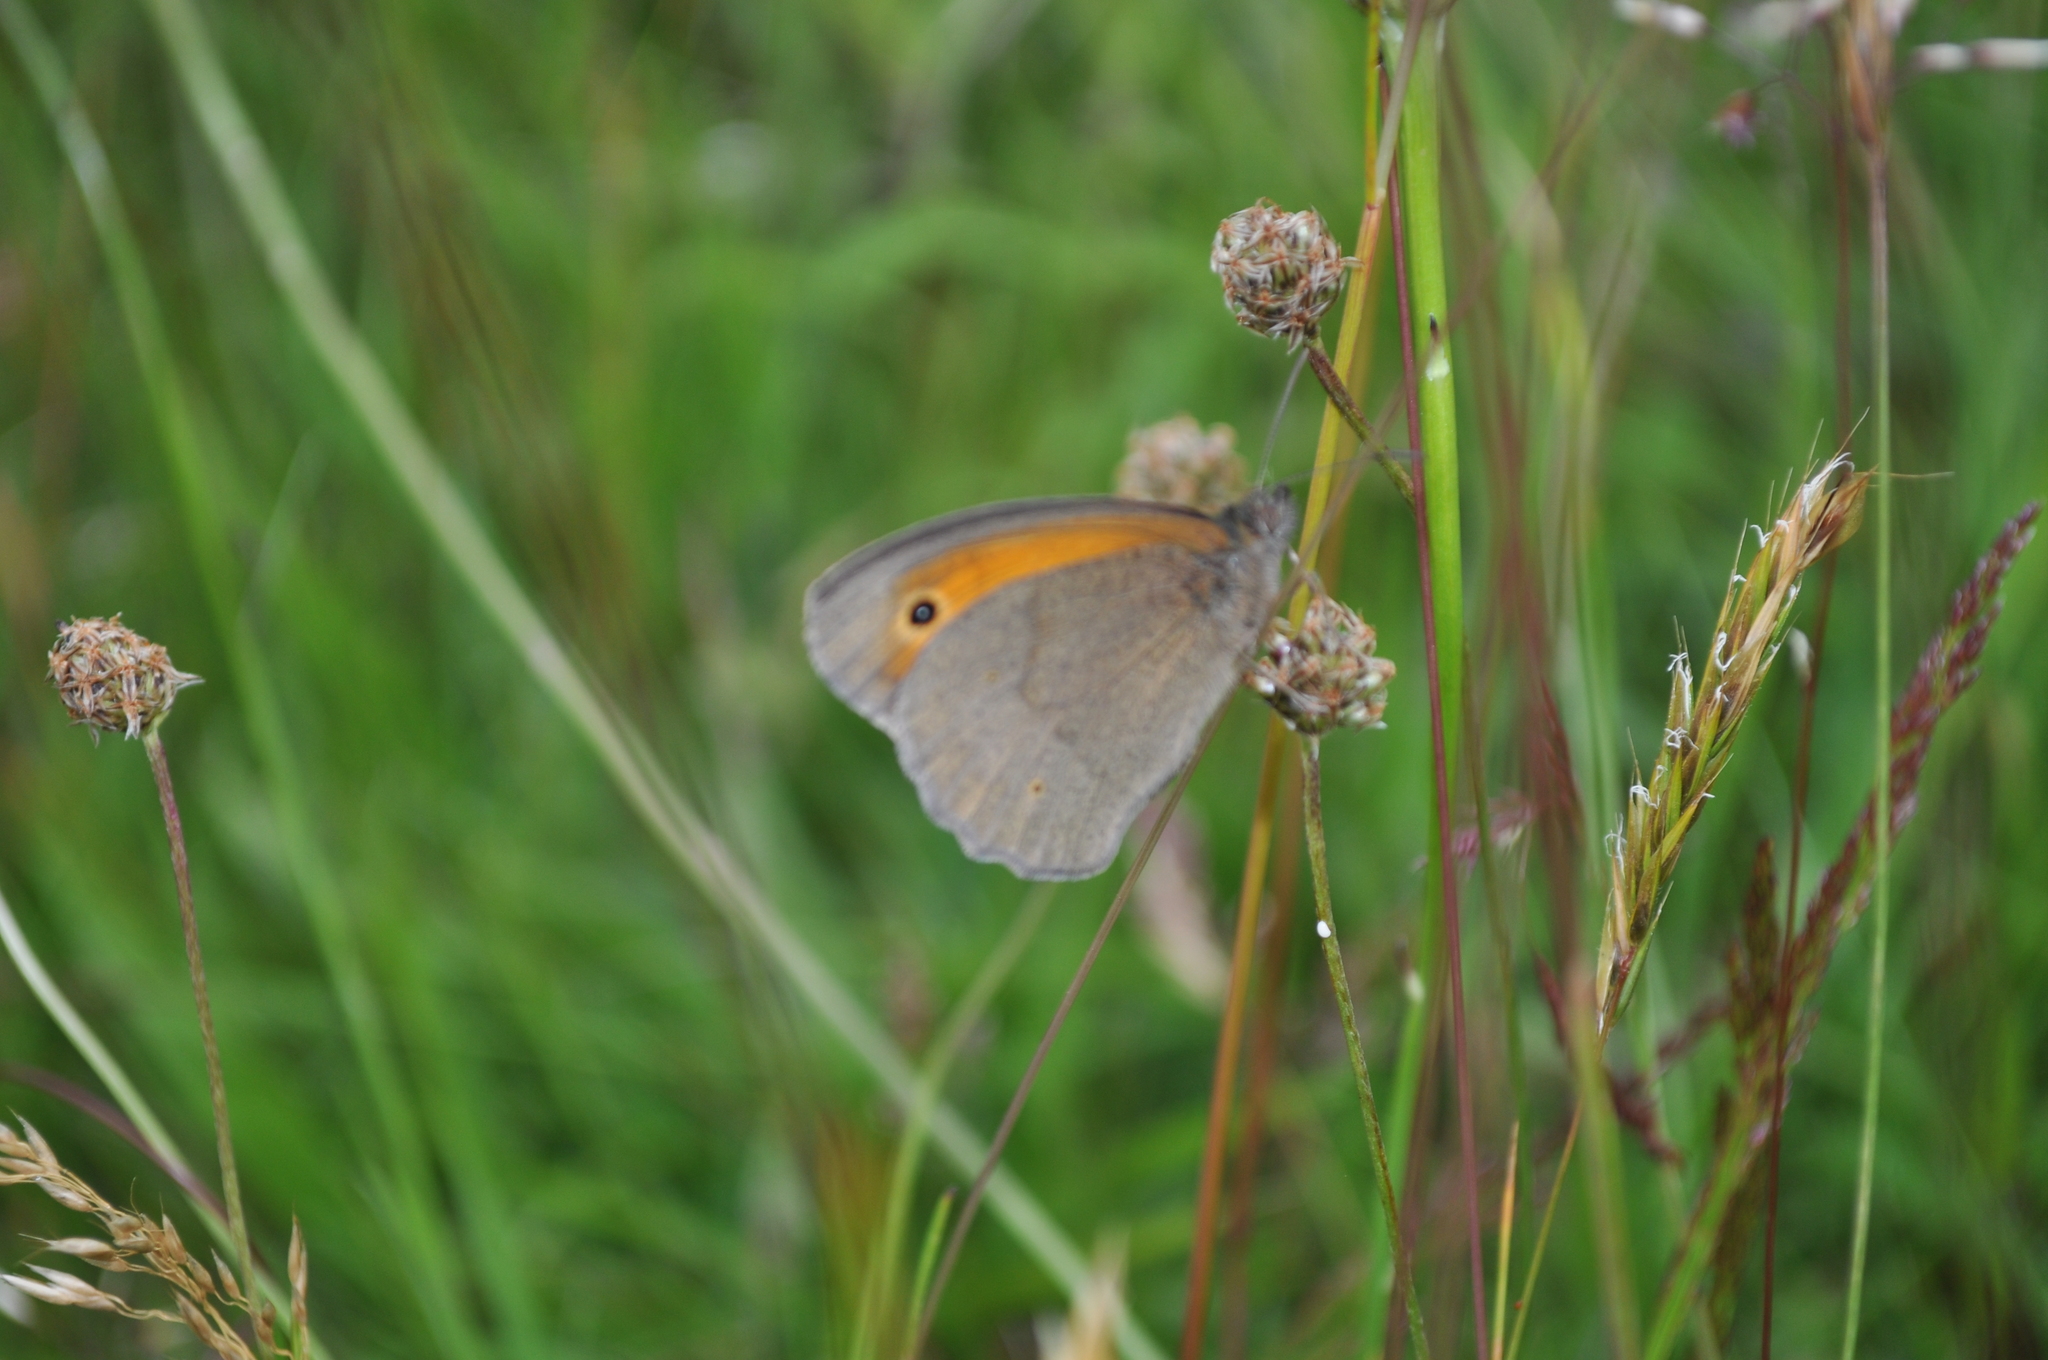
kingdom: Animalia
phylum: Arthropoda
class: Insecta
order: Lepidoptera
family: Nymphalidae
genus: Maniola
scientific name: Maniola jurtina
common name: Meadow brown
